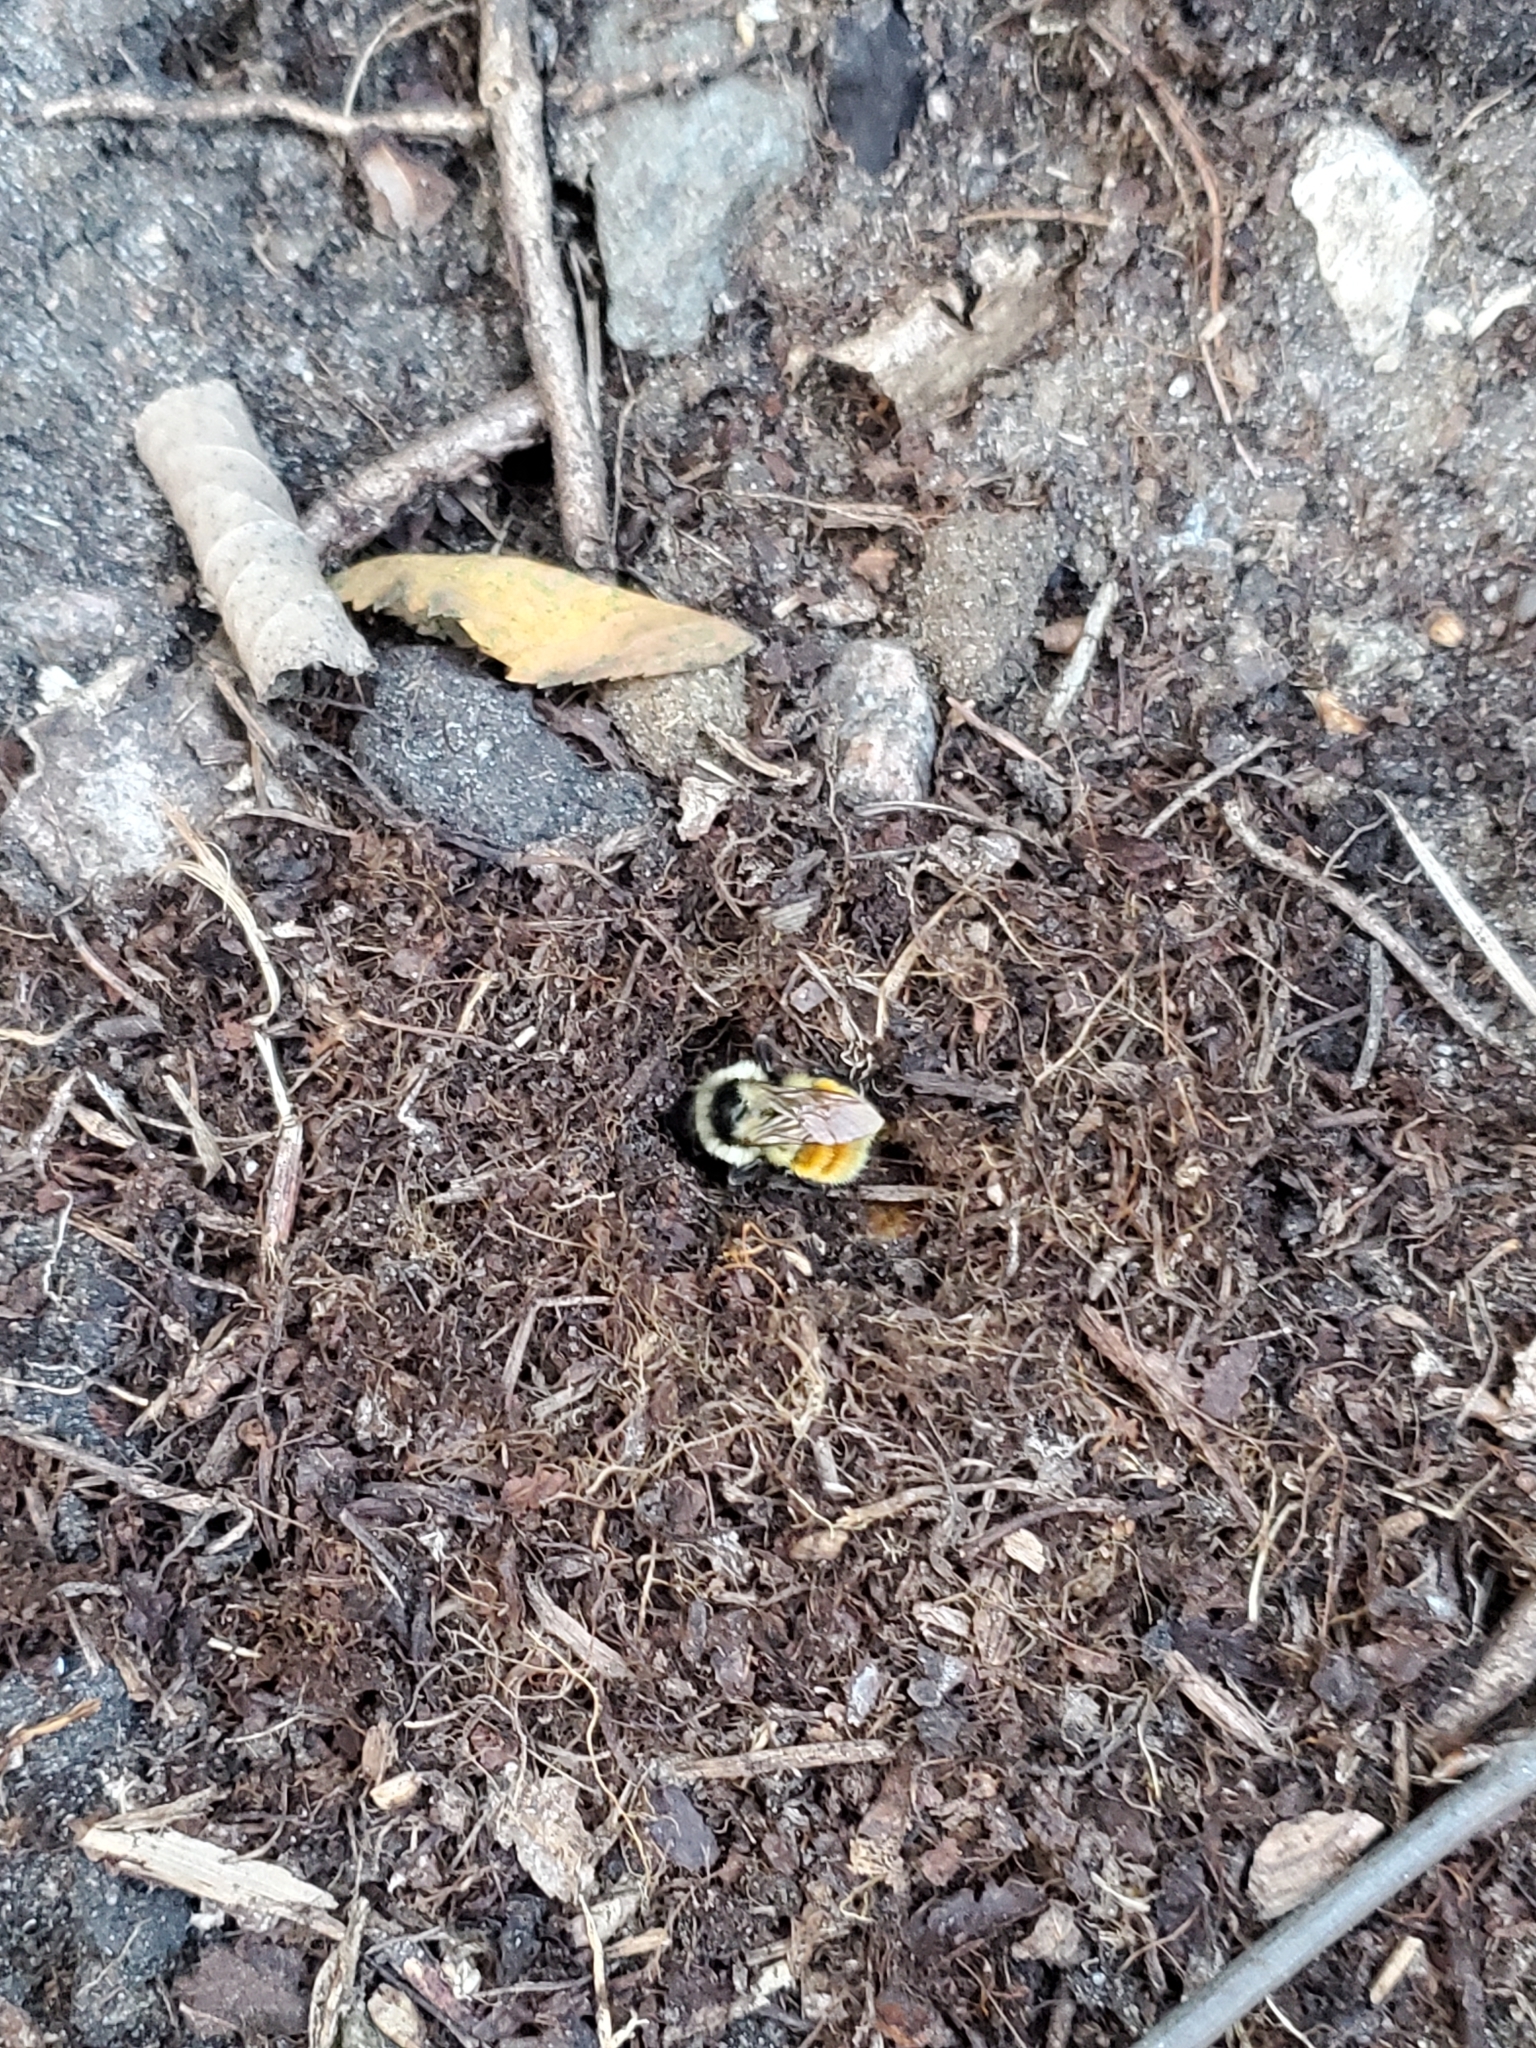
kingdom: Animalia
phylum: Arthropoda
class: Insecta
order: Hymenoptera
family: Apidae
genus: Bombus
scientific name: Bombus ternarius
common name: Tri-colored bumble bee
